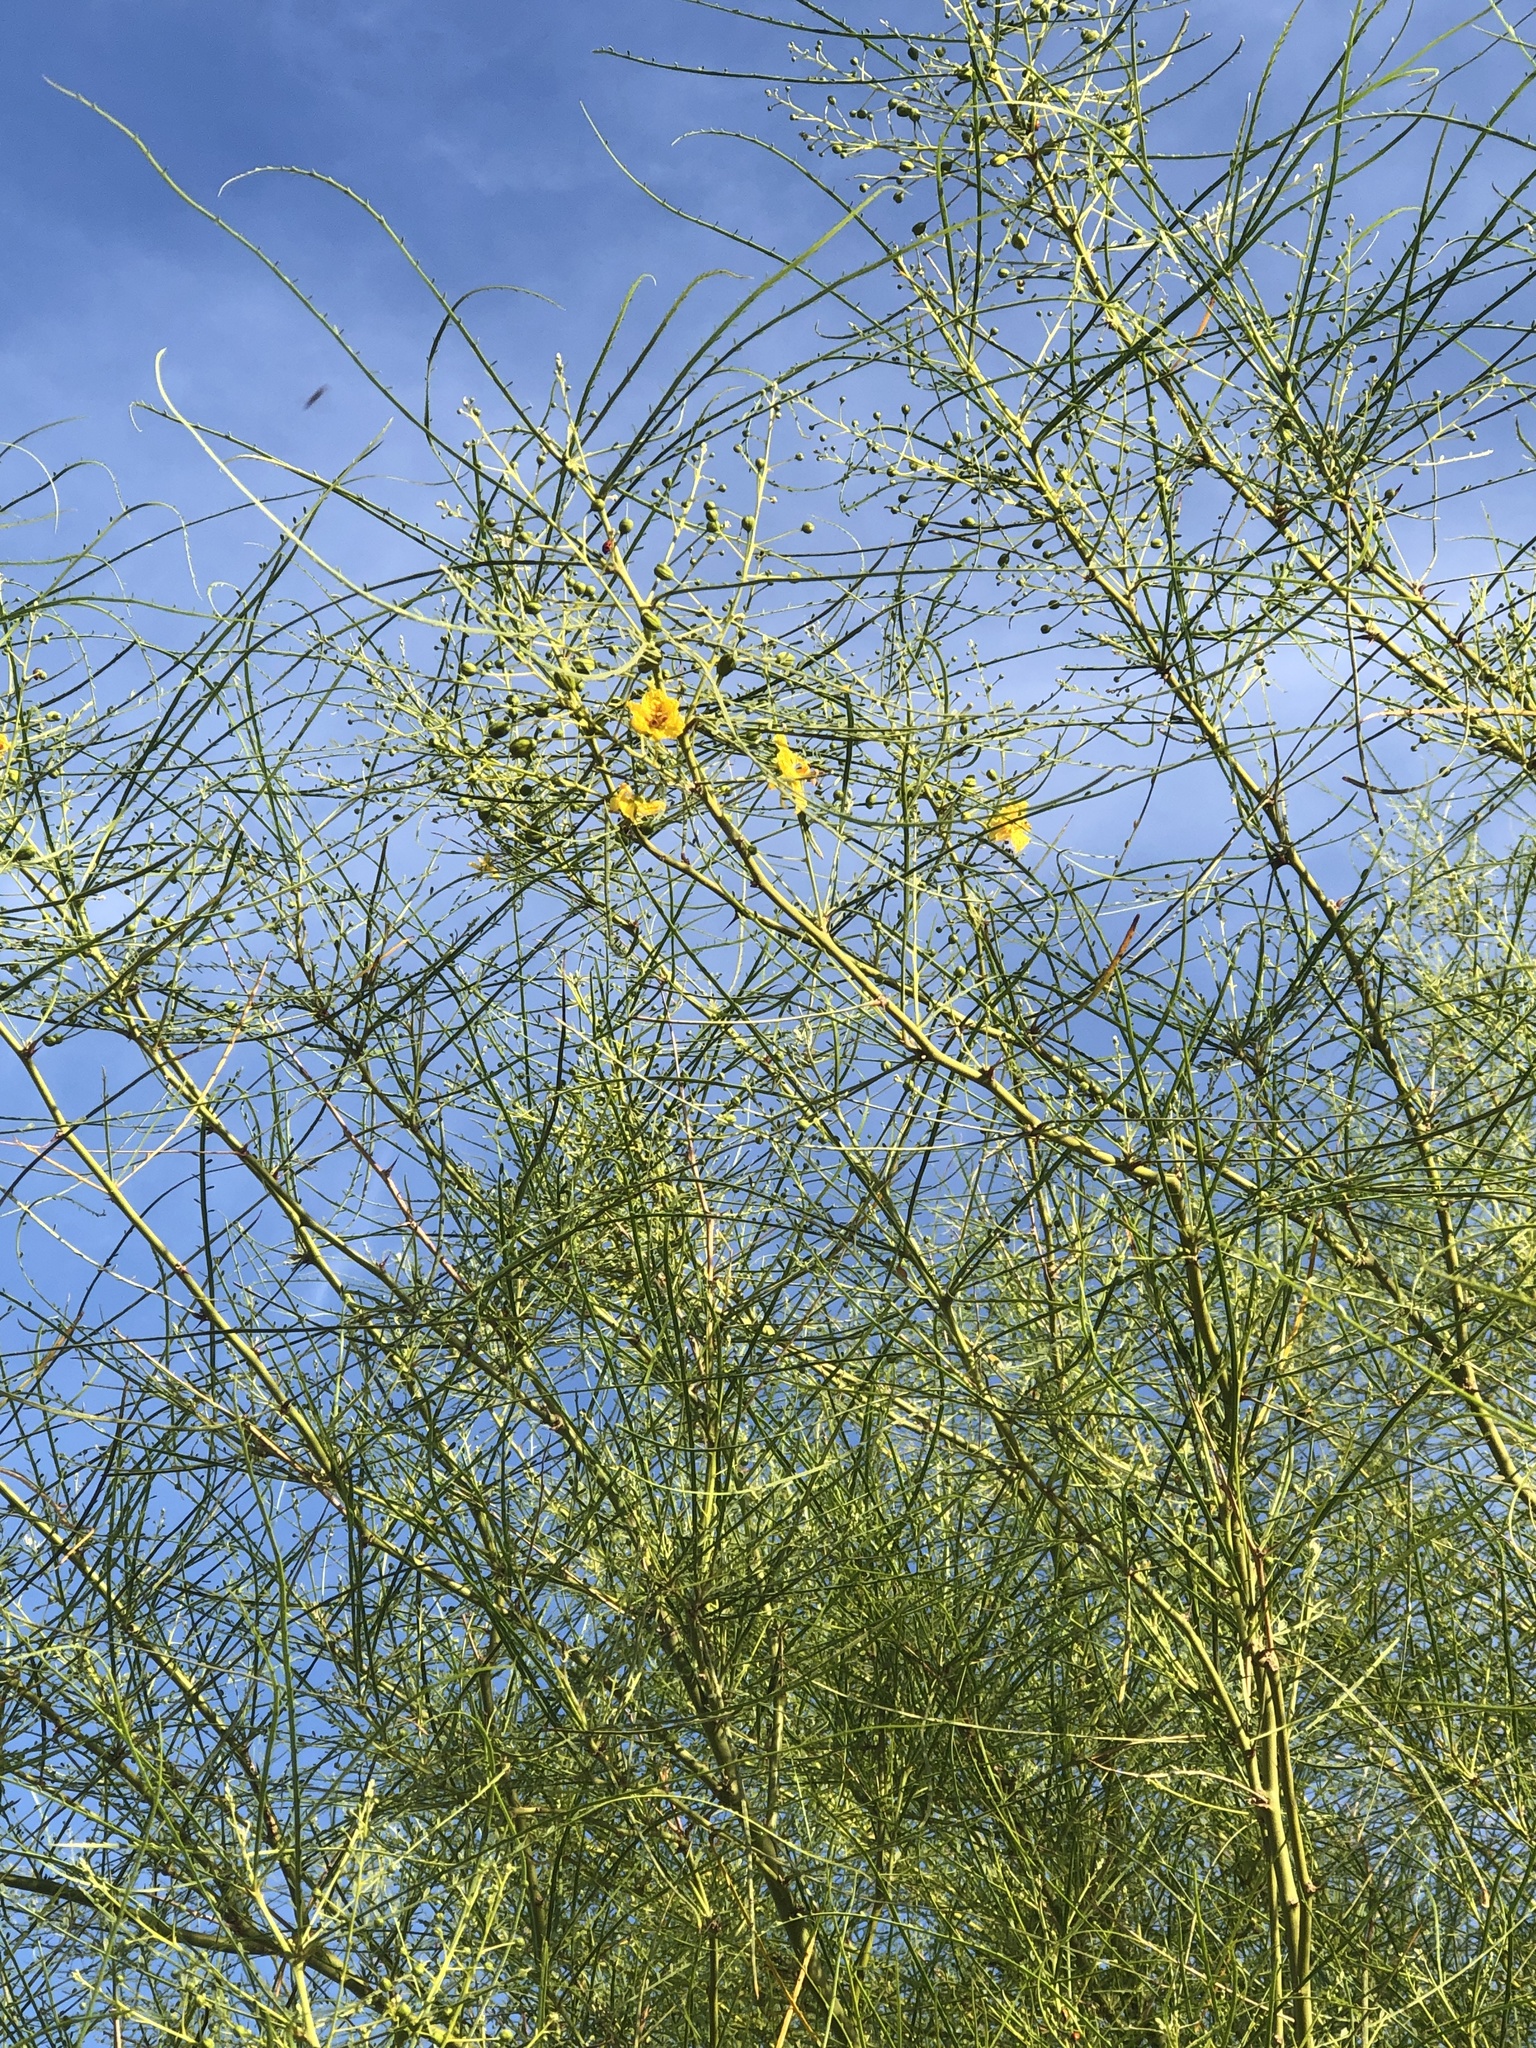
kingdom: Plantae
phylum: Tracheophyta
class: Magnoliopsida
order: Fabales
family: Fabaceae
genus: Parkinsonia
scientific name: Parkinsonia aculeata
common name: Jerusalem thorn
